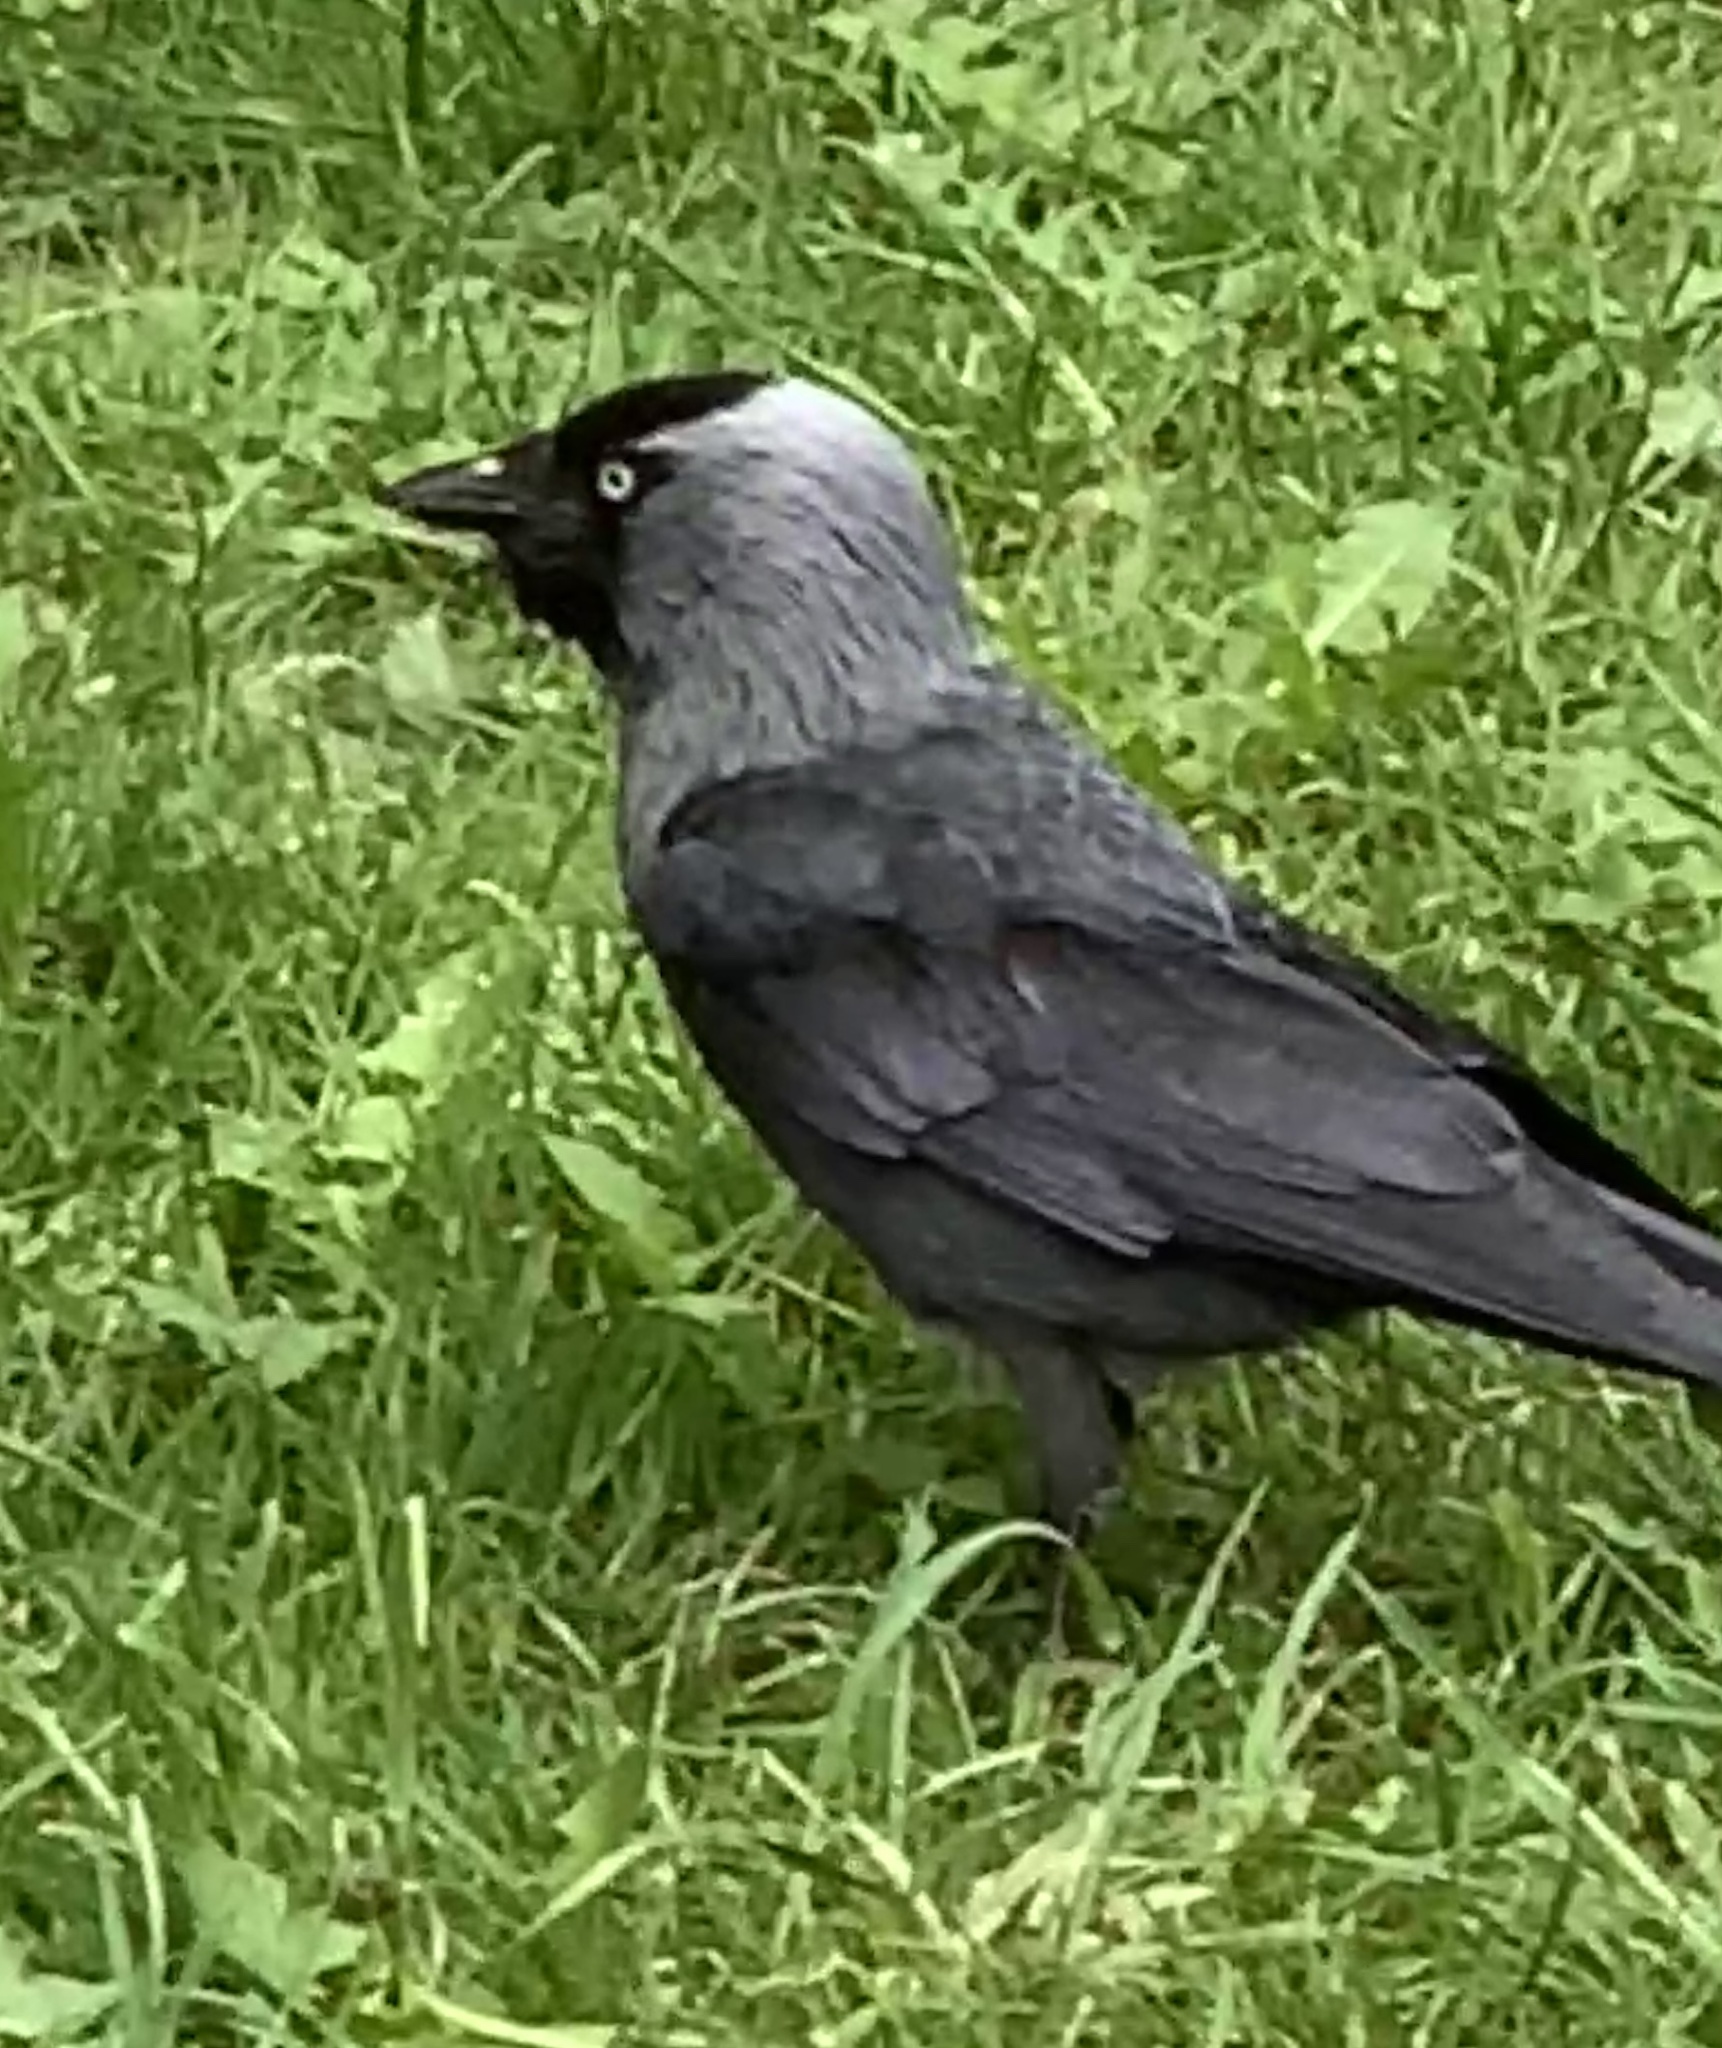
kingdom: Animalia
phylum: Chordata
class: Aves
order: Passeriformes
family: Corvidae
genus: Coloeus
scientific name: Coloeus monedula
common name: Western jackdaw
